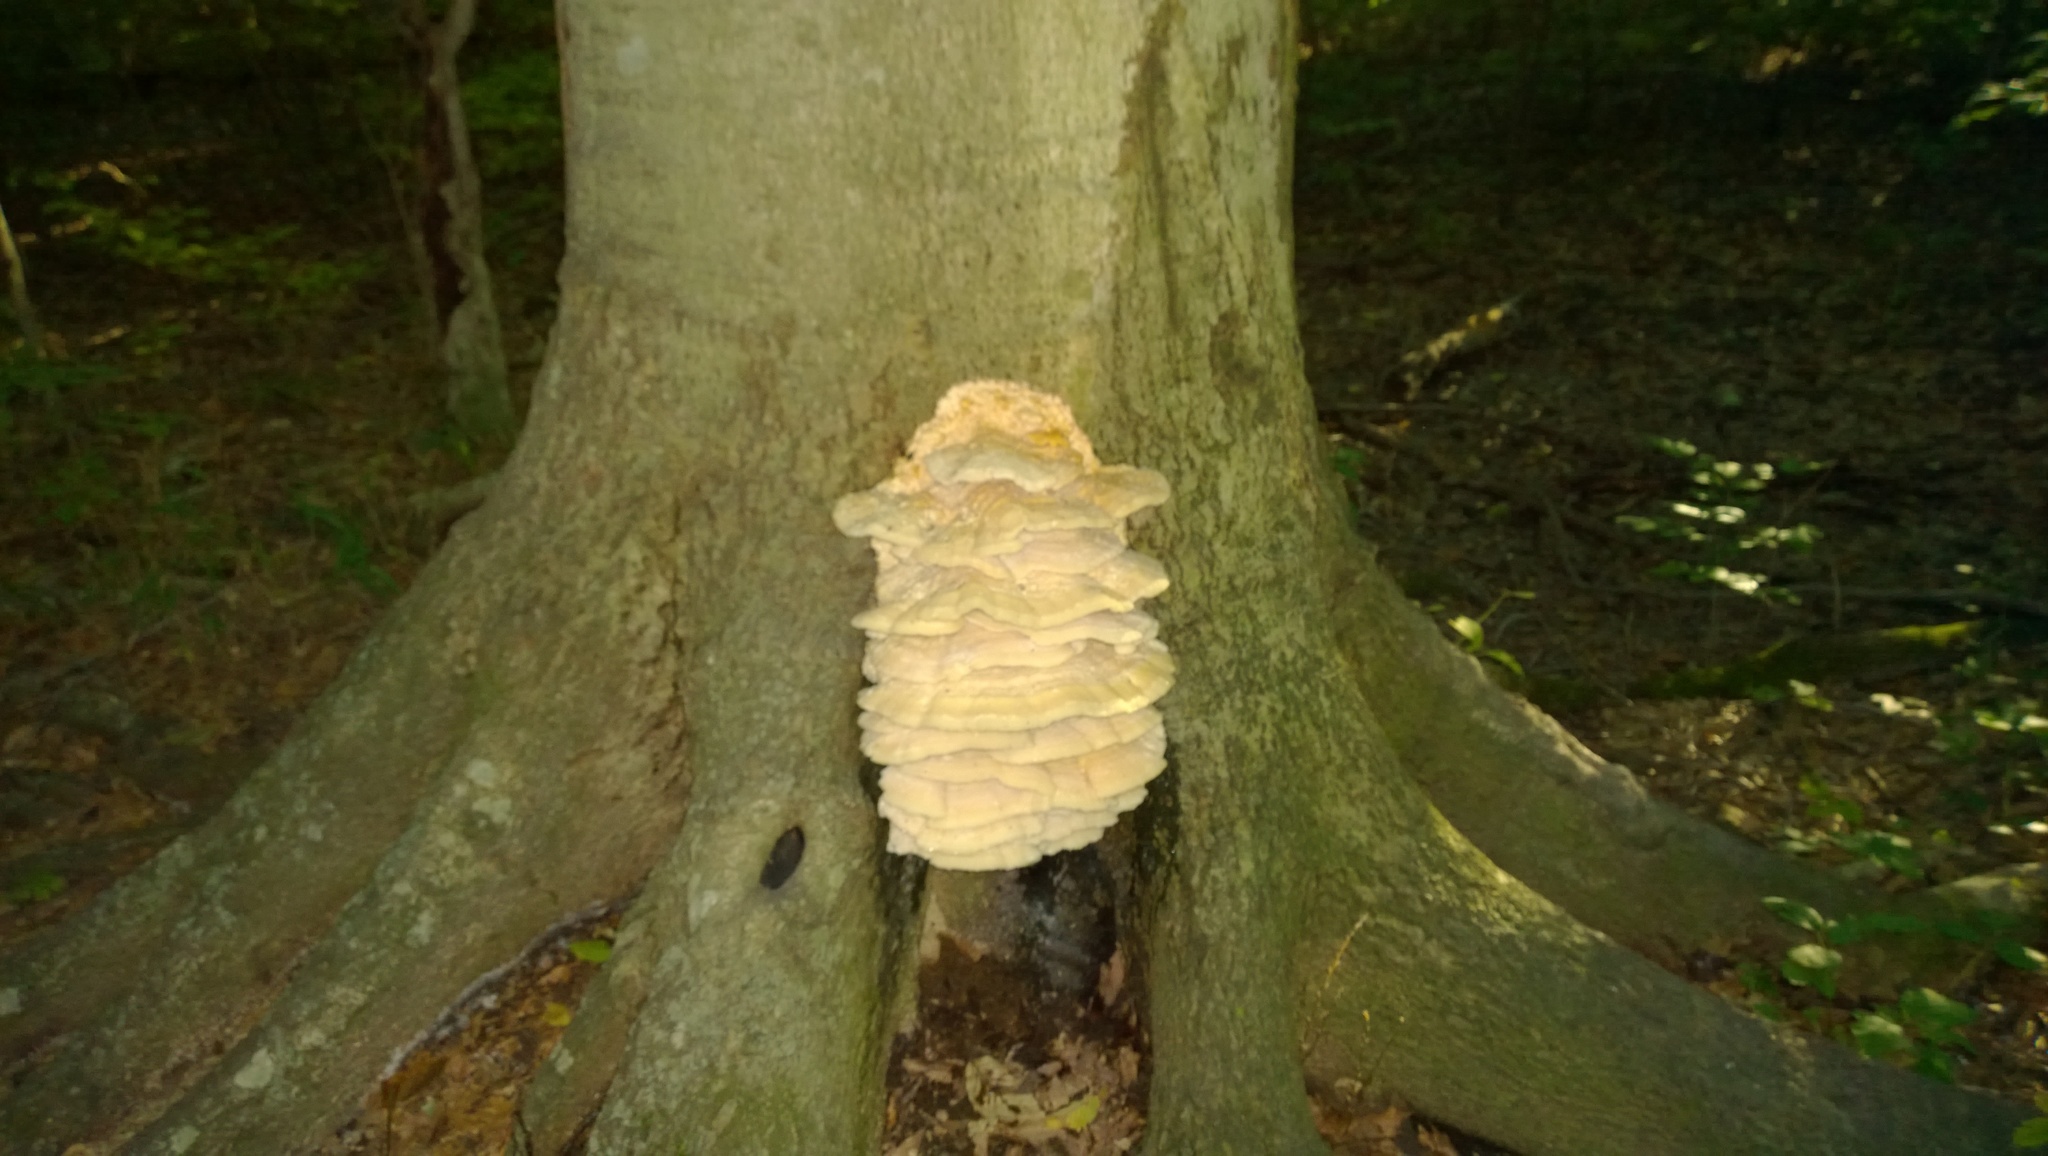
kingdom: Fungi
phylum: Basidiomycota
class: Agaricomycetes
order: Polyporales
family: Meruliaceae
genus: Climacodon
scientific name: Climacodon septentrionalis
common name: Northern tooth
